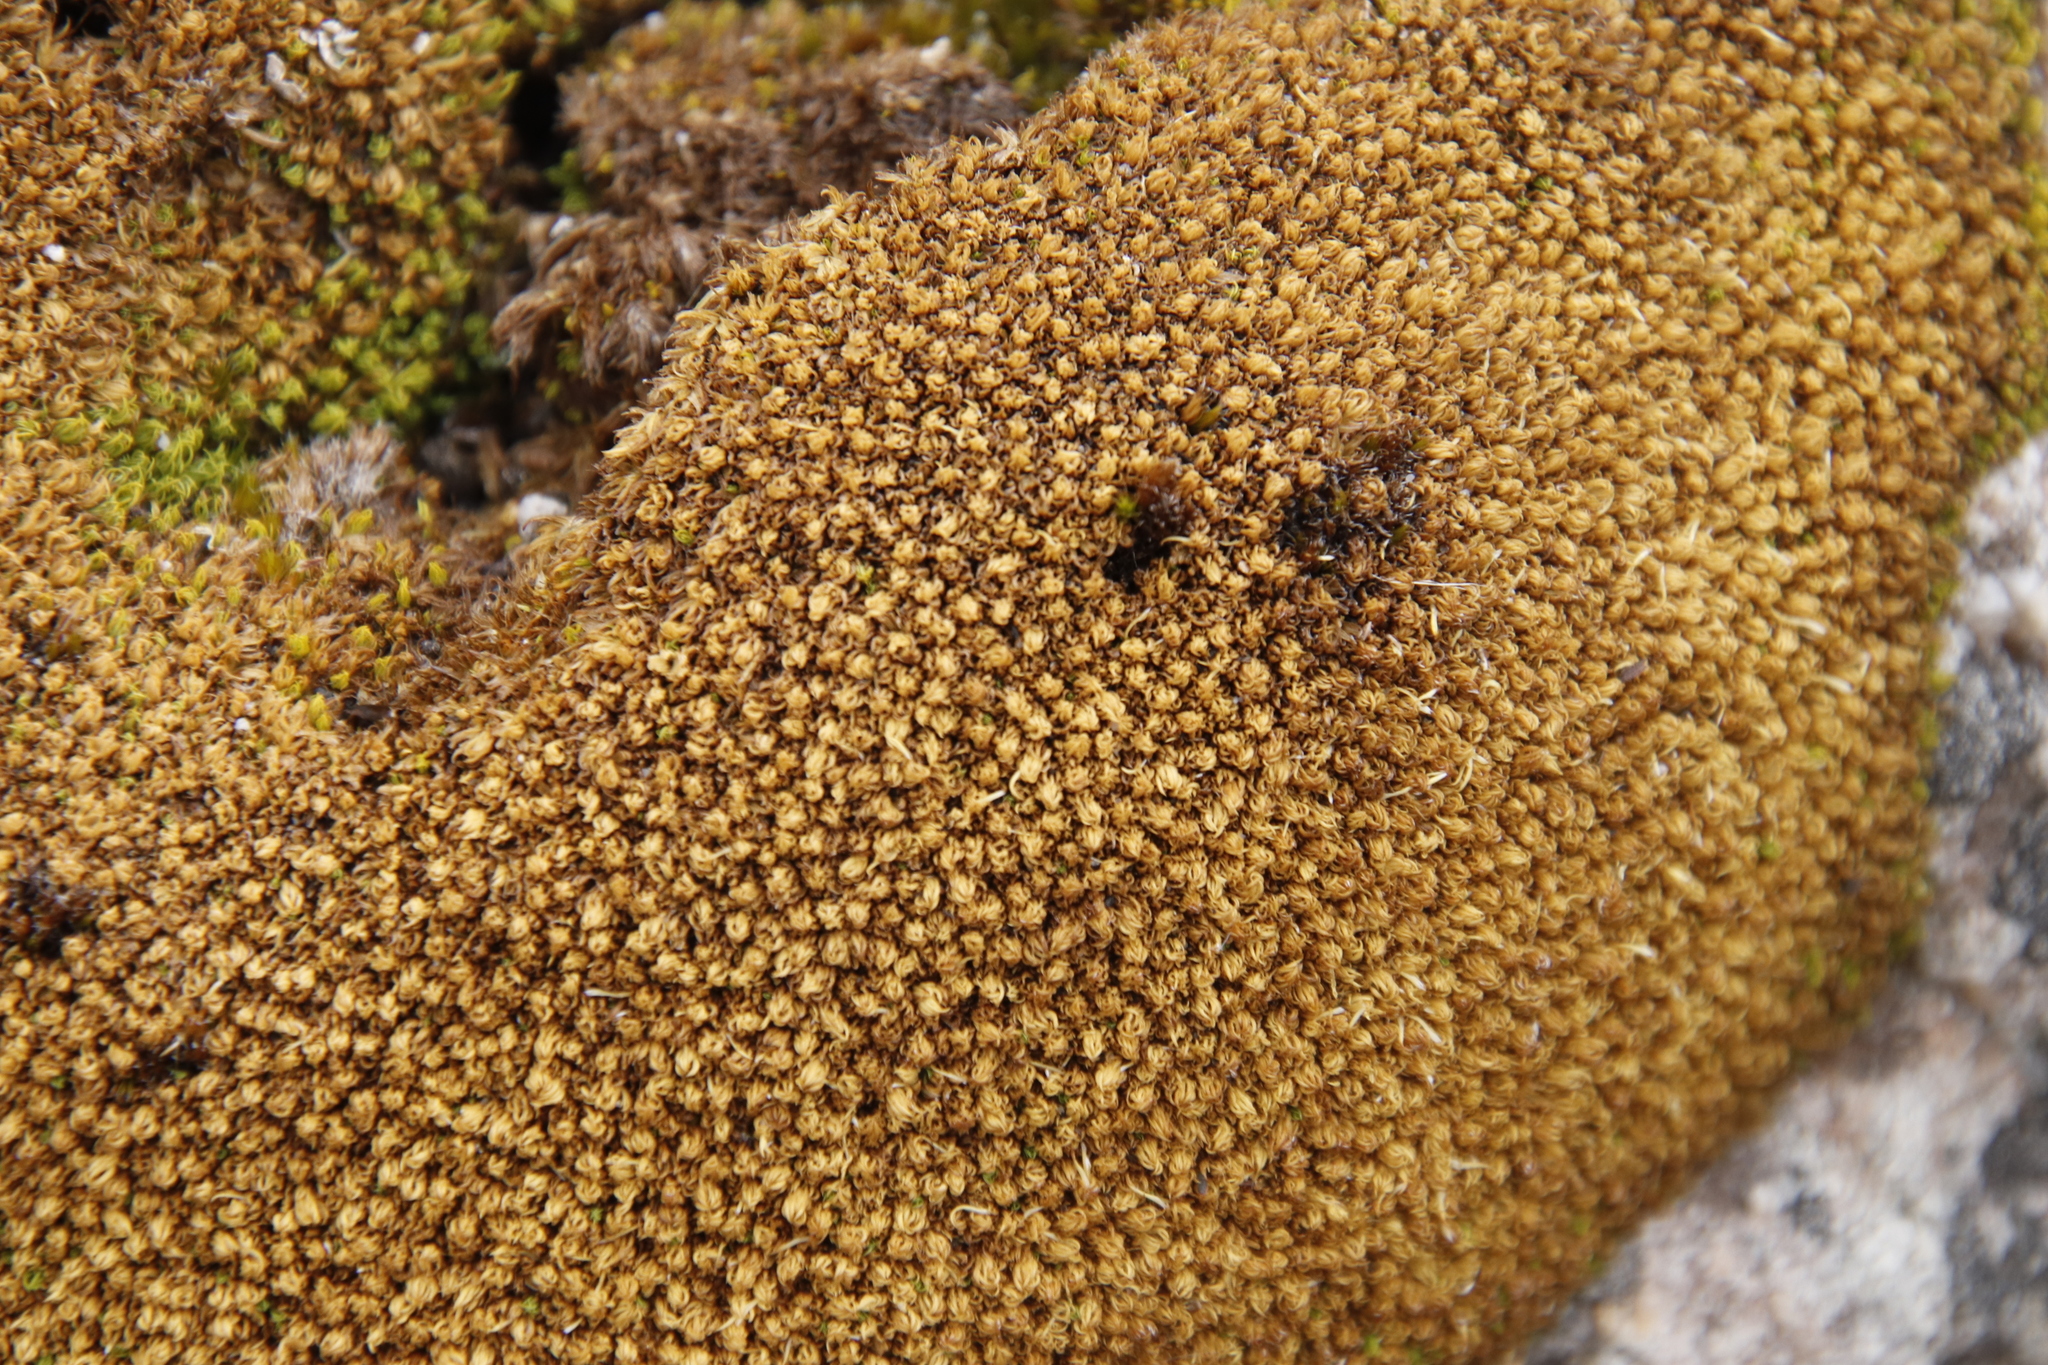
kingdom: Plantae
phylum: Bryophyta
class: Bryopsida
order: Dicranales
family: Hypodontiaceae
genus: Hypodontium
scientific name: Hypodontium pomiforme
